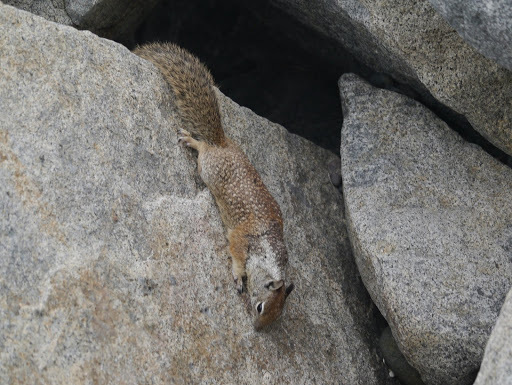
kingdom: Animalia
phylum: Chordata
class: Mammalia
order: Rodentia
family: Sciuridae
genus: Otospermophilus
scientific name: Otospermophilus beecheyi
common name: California ground squirrel
